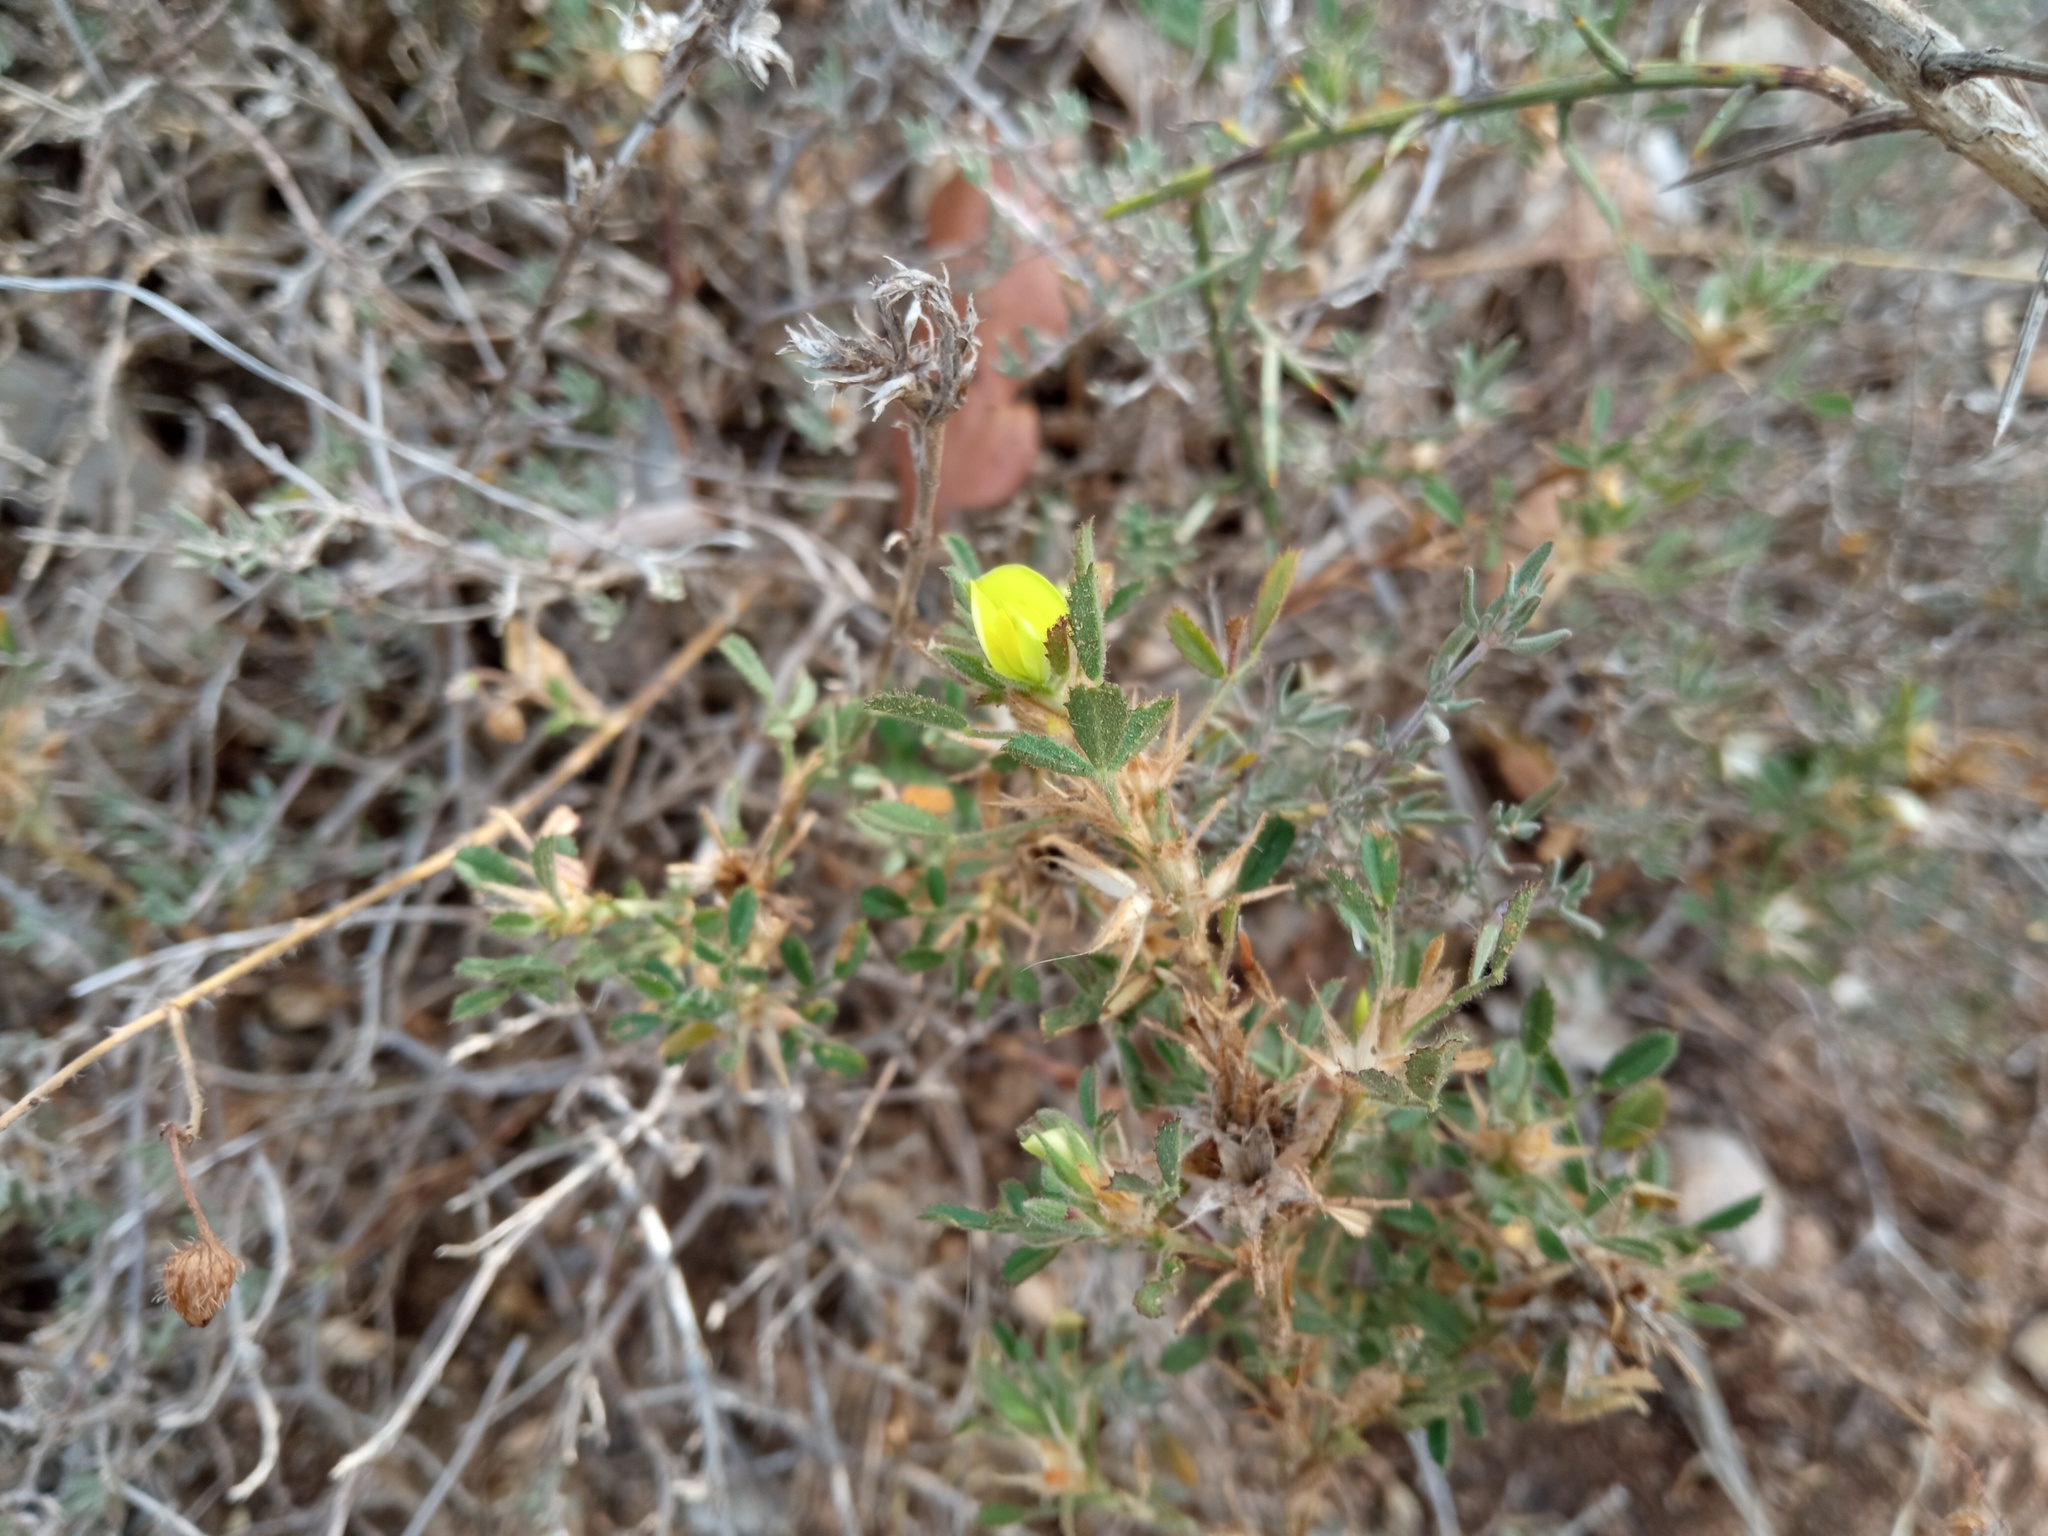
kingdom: Plantae
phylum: Tracheophyta
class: Magnoliopsida
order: Fabales
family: Fabaceae
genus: Ononis
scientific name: Ononis minutissima
